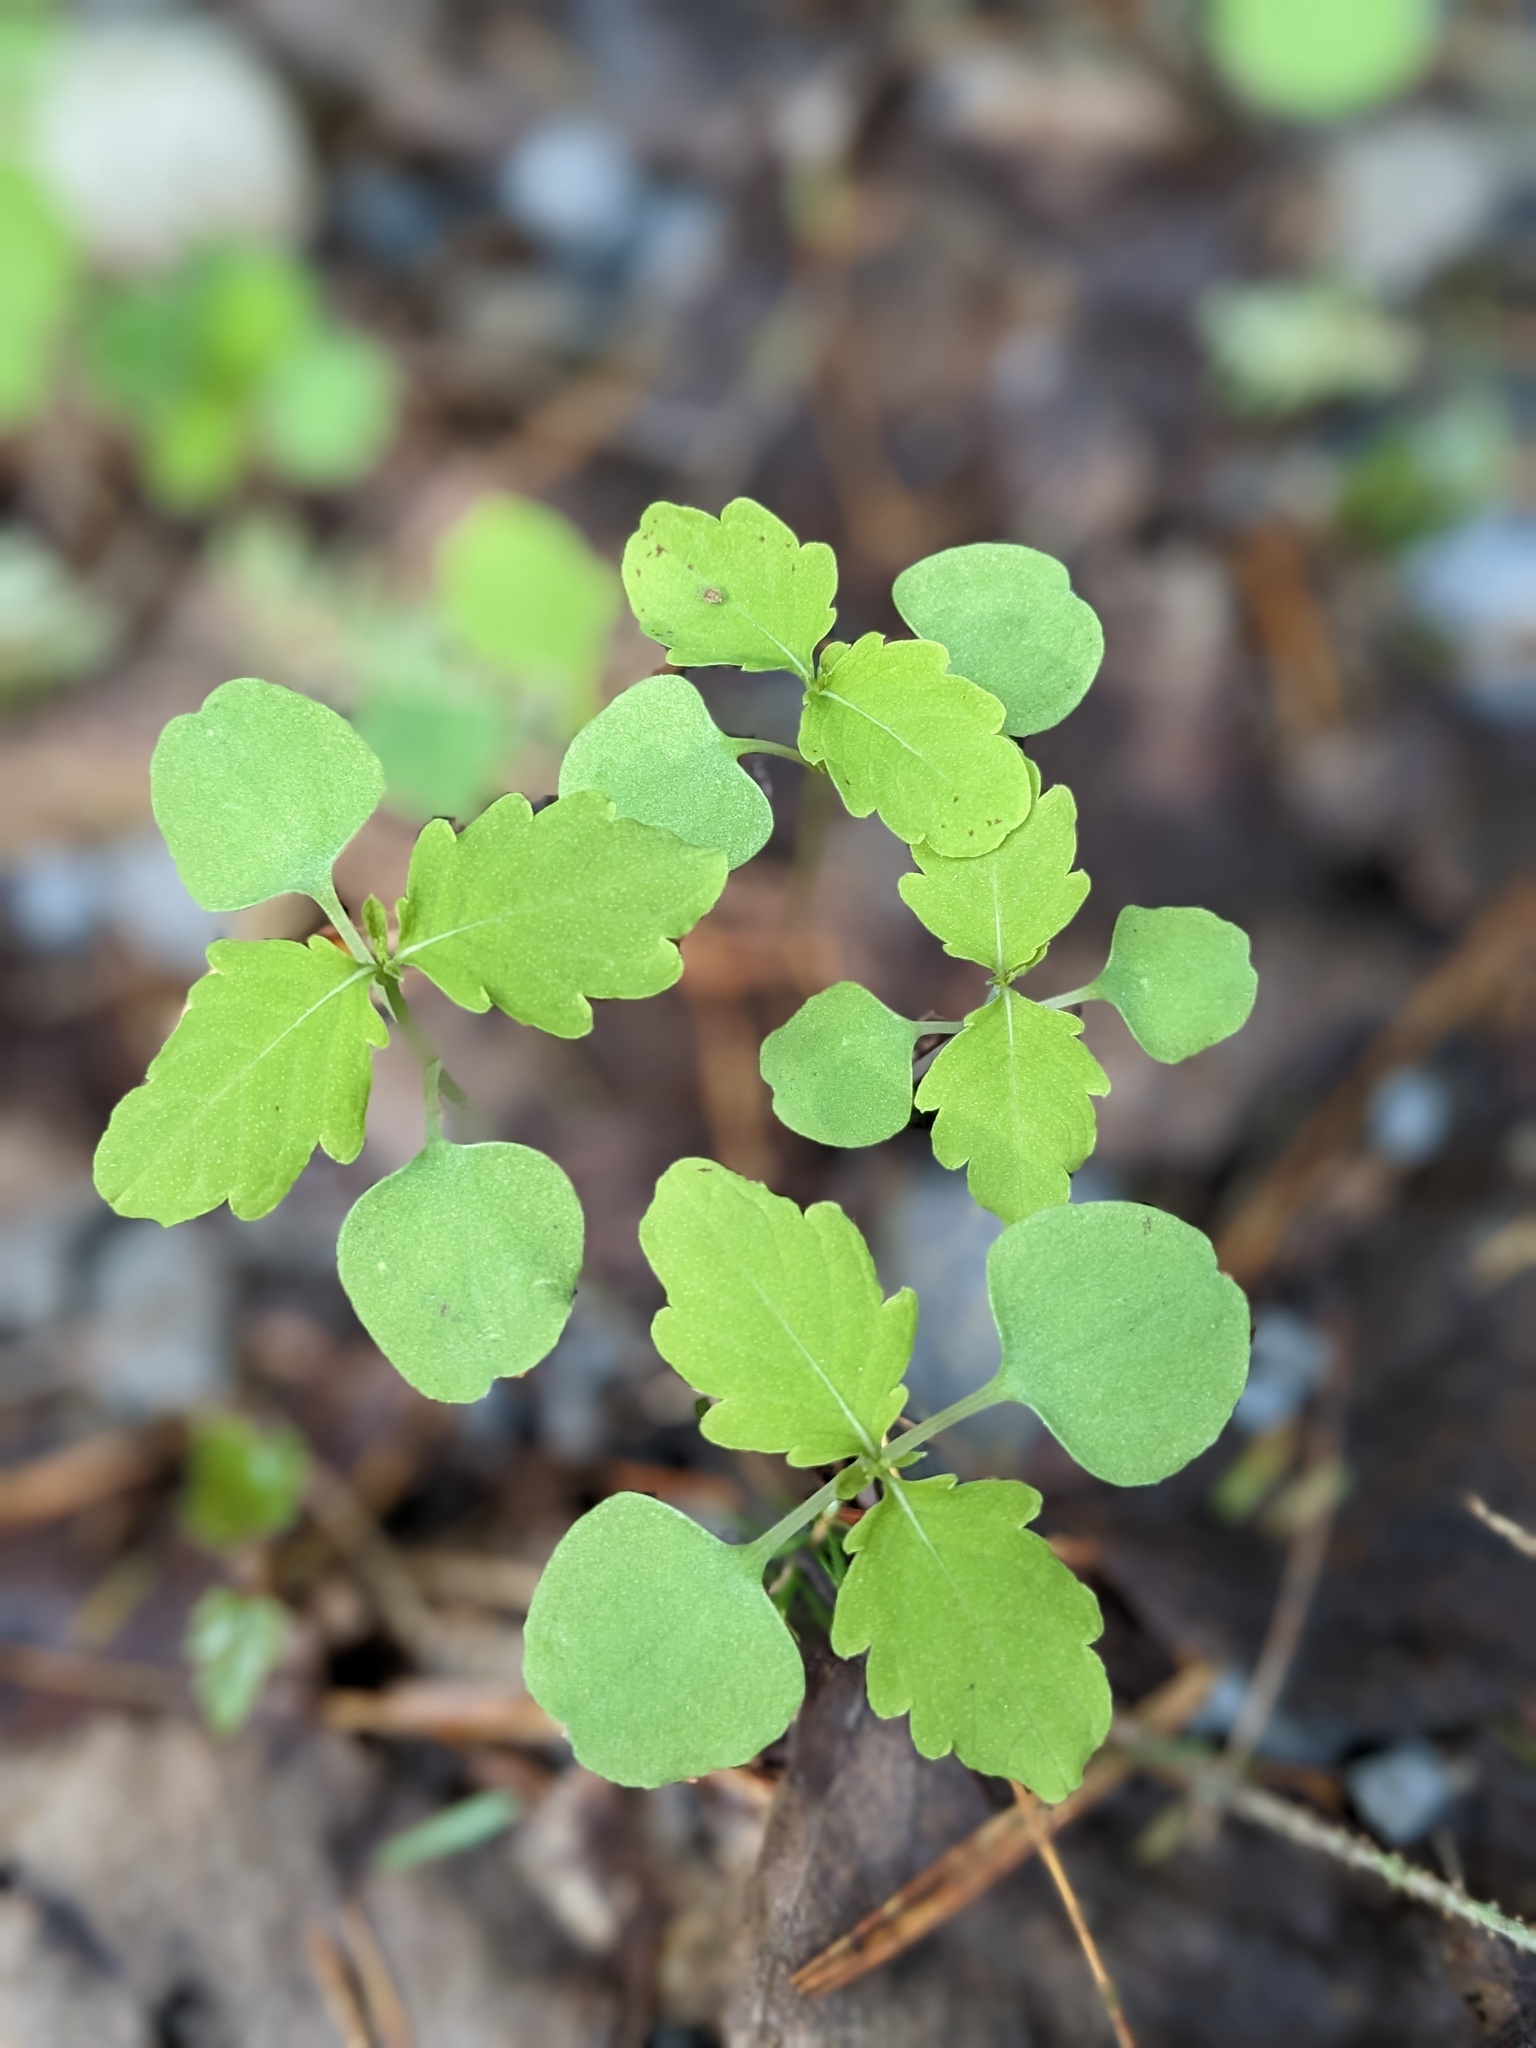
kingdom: Plantae
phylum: Tracheophyta
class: Magnoliopsida
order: Ericales
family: Balsaminaceae
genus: Impatiens
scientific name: Impatiens capensis
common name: Orange balsam
